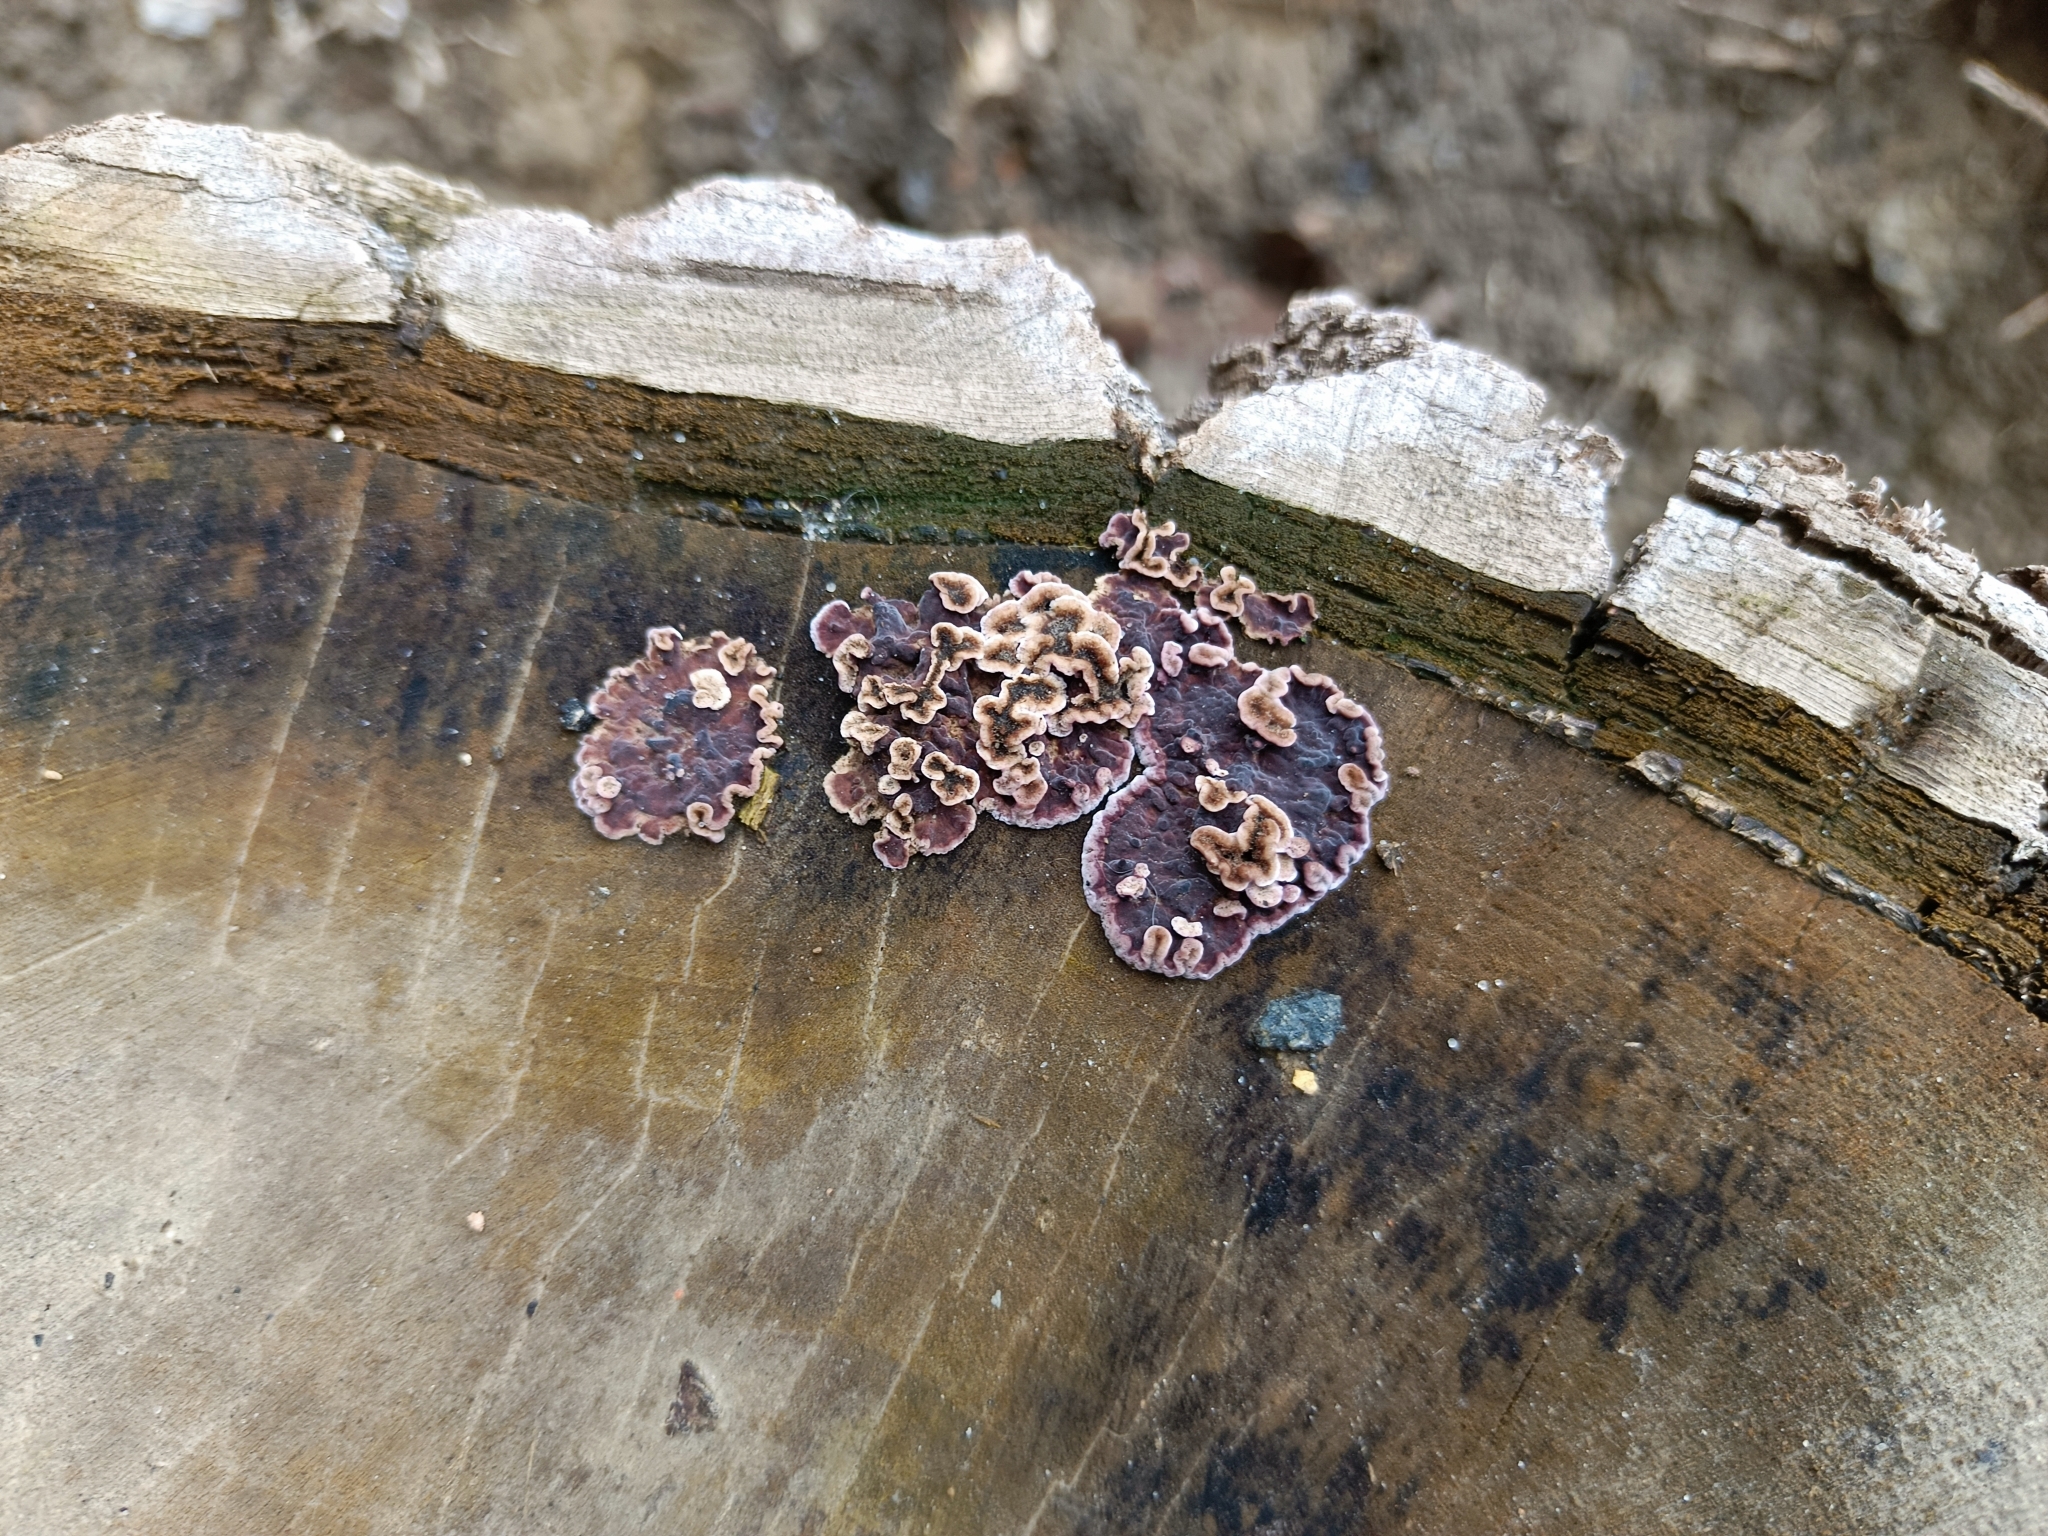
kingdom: Fungi
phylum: Basidiomycota
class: Agaricomycetes
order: Agaricales
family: Cyphellaceae
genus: Chondrostereum
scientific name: Chondrostereum purpureum
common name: Silver leaf disease
